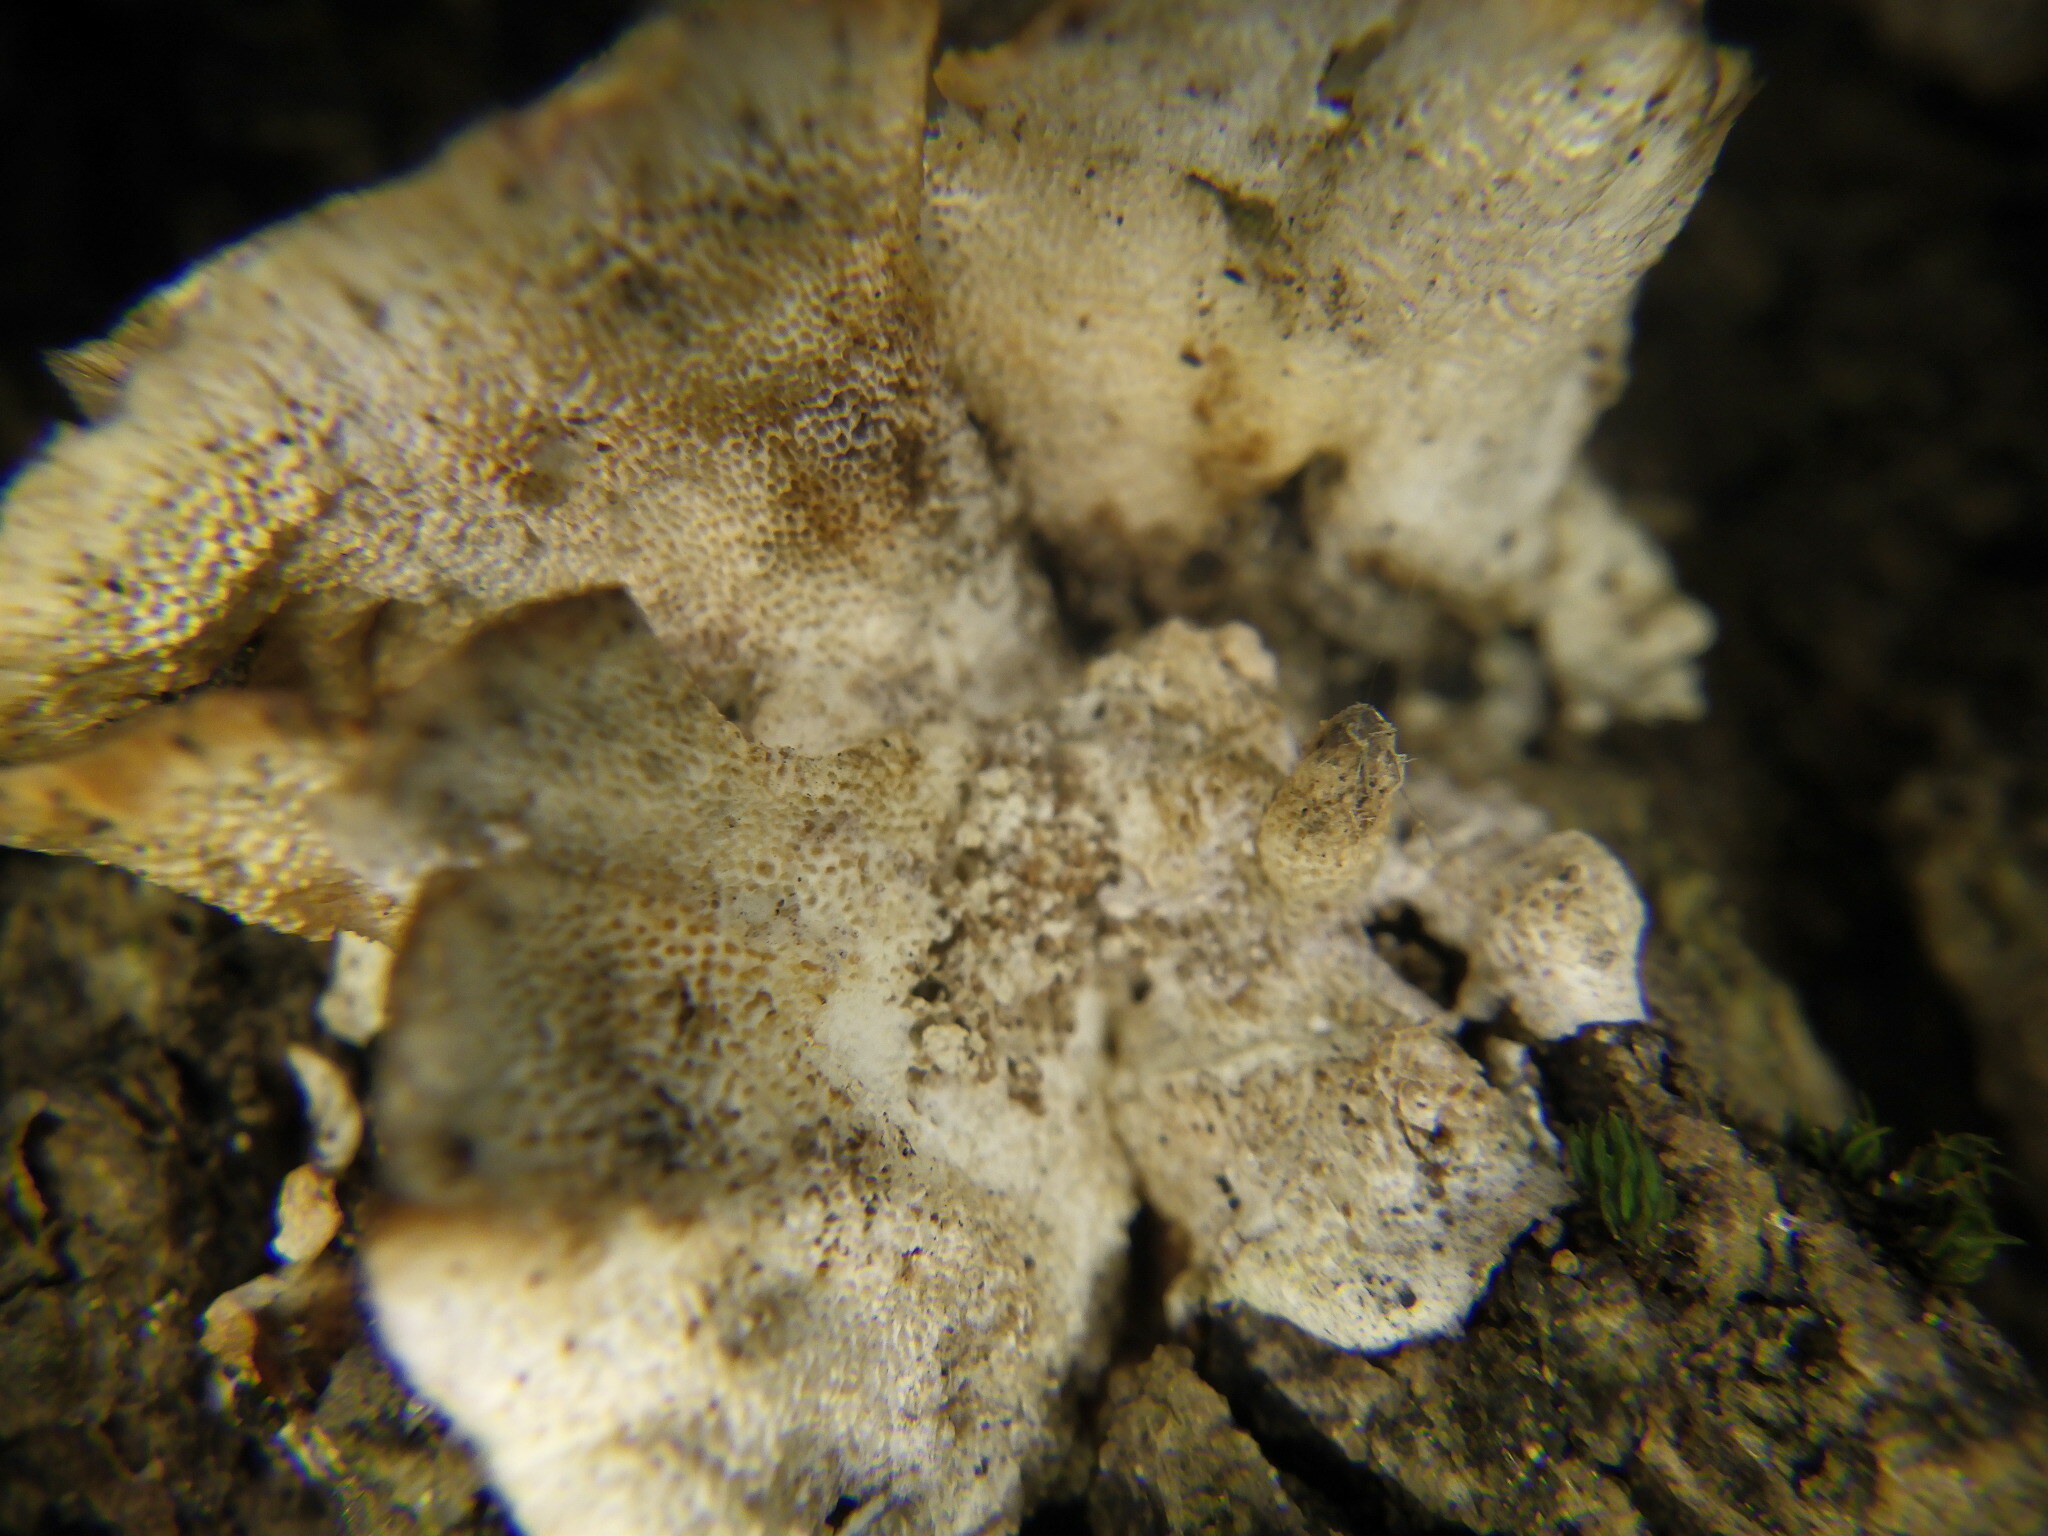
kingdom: Fungi
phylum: Basidiomycota
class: Agaricomycetes
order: Polyporales
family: Polyporaceae
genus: Trametes
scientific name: Trametes versicolor
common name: Turkeytail
